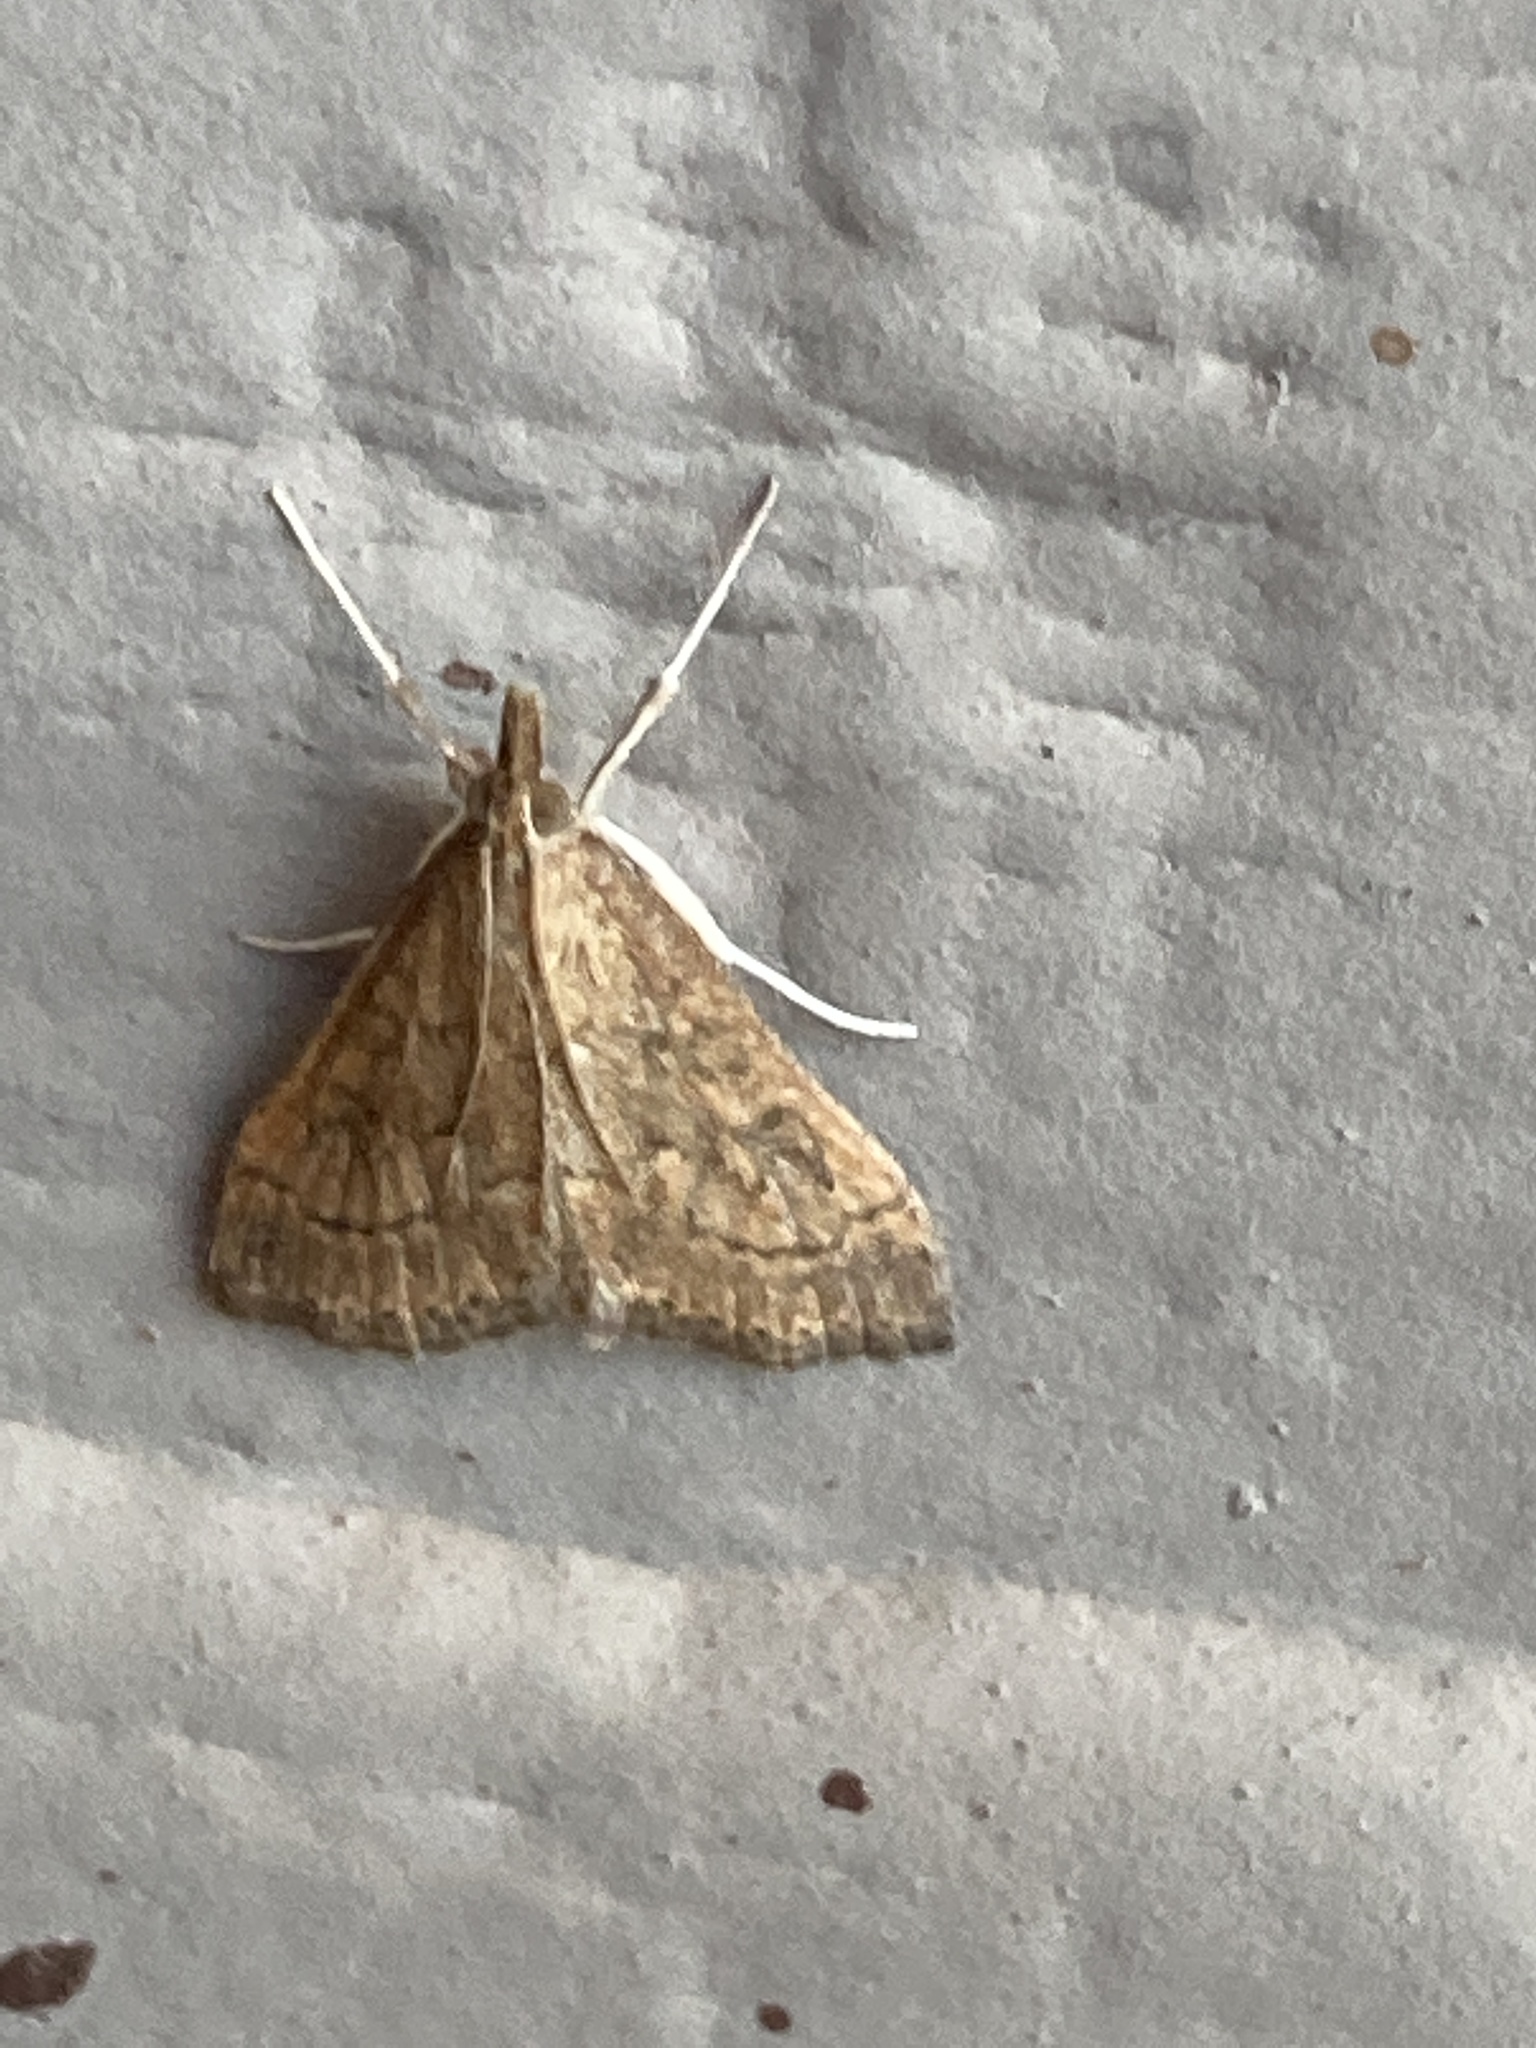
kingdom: Animalia
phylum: Arthropoda
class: Insecta
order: Lepidoptera
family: Crambidae
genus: Udea
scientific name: Udea rubigalis
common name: Celery leaftier moth
